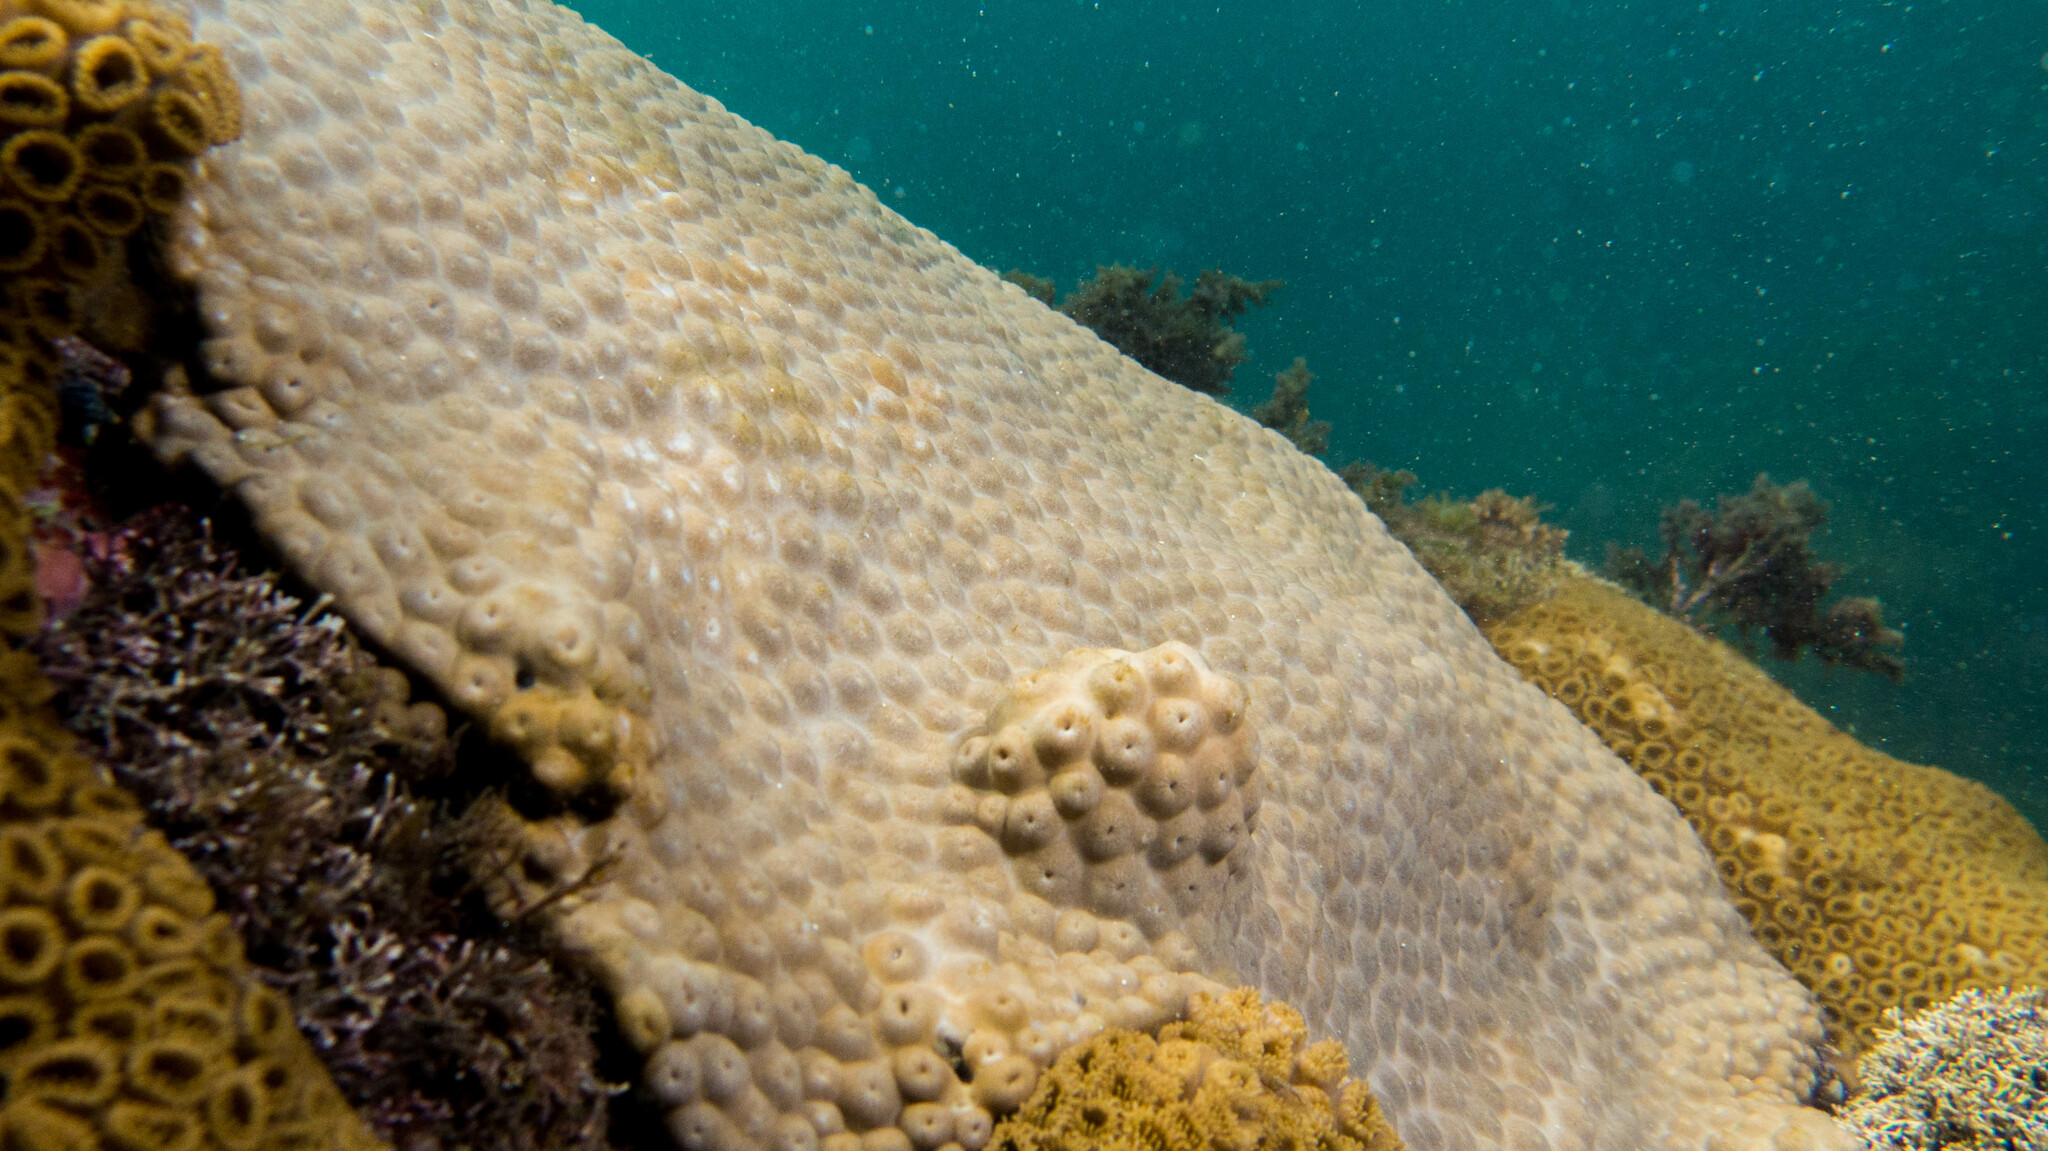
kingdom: Animalia
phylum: Cnidaria
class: Anthozoa
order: Zoantharia
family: Sphenopidae
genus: Palythoa
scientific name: Palythoa caribaeorum
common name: Encrusting colonial anemone
